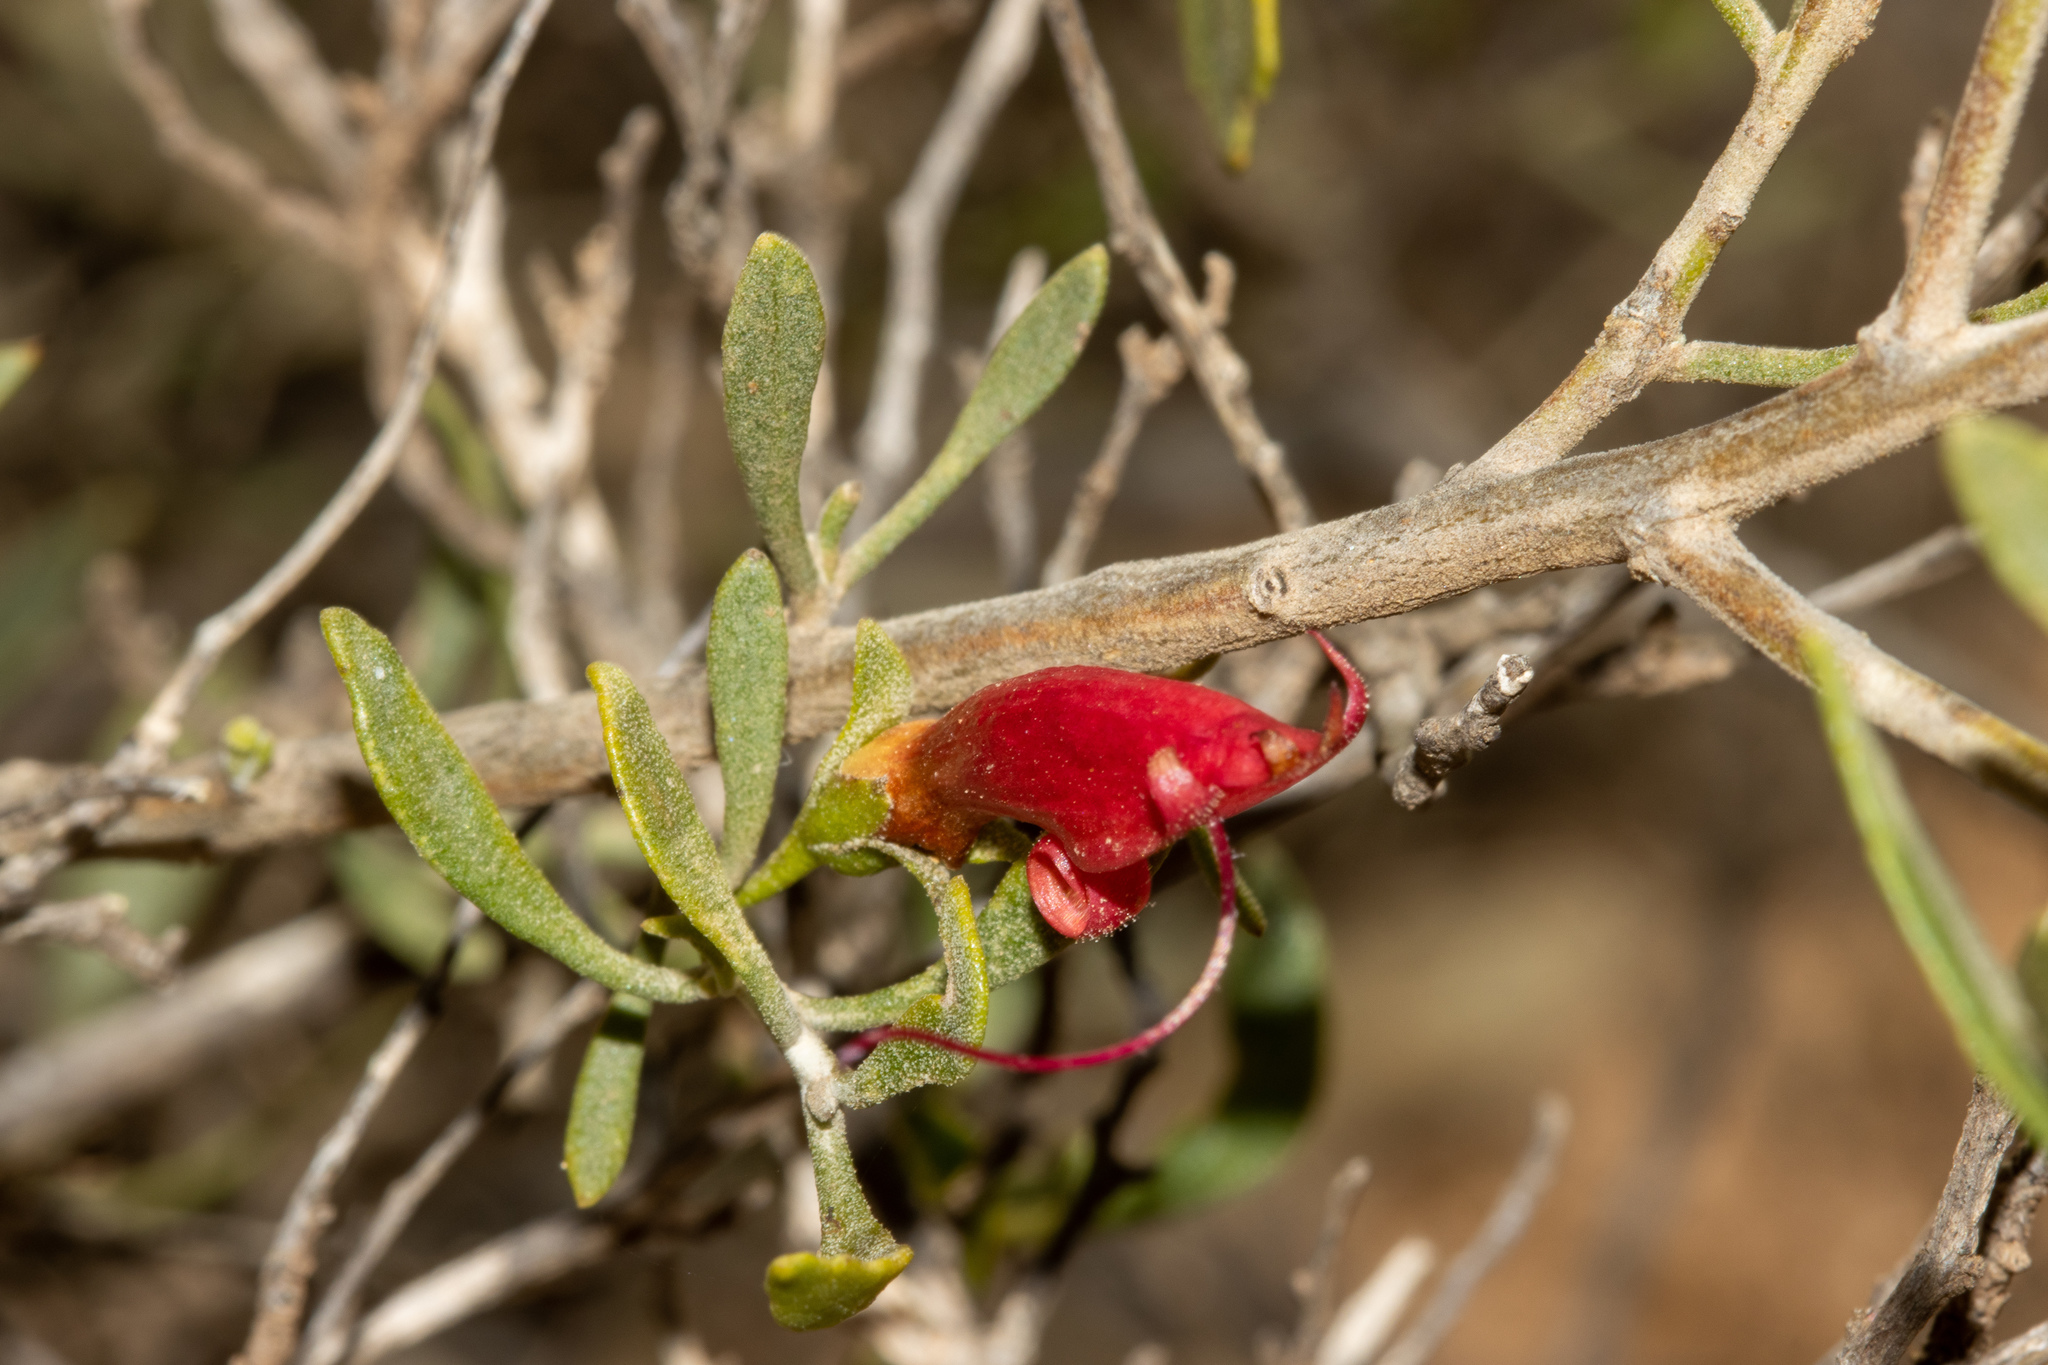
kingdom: Plantae
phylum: Tracheophyta
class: Magnoliopsida
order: Lamiales
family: Scrophulariaceae
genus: Eremophila
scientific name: Eremophila glabra
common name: Black-fuchsia
